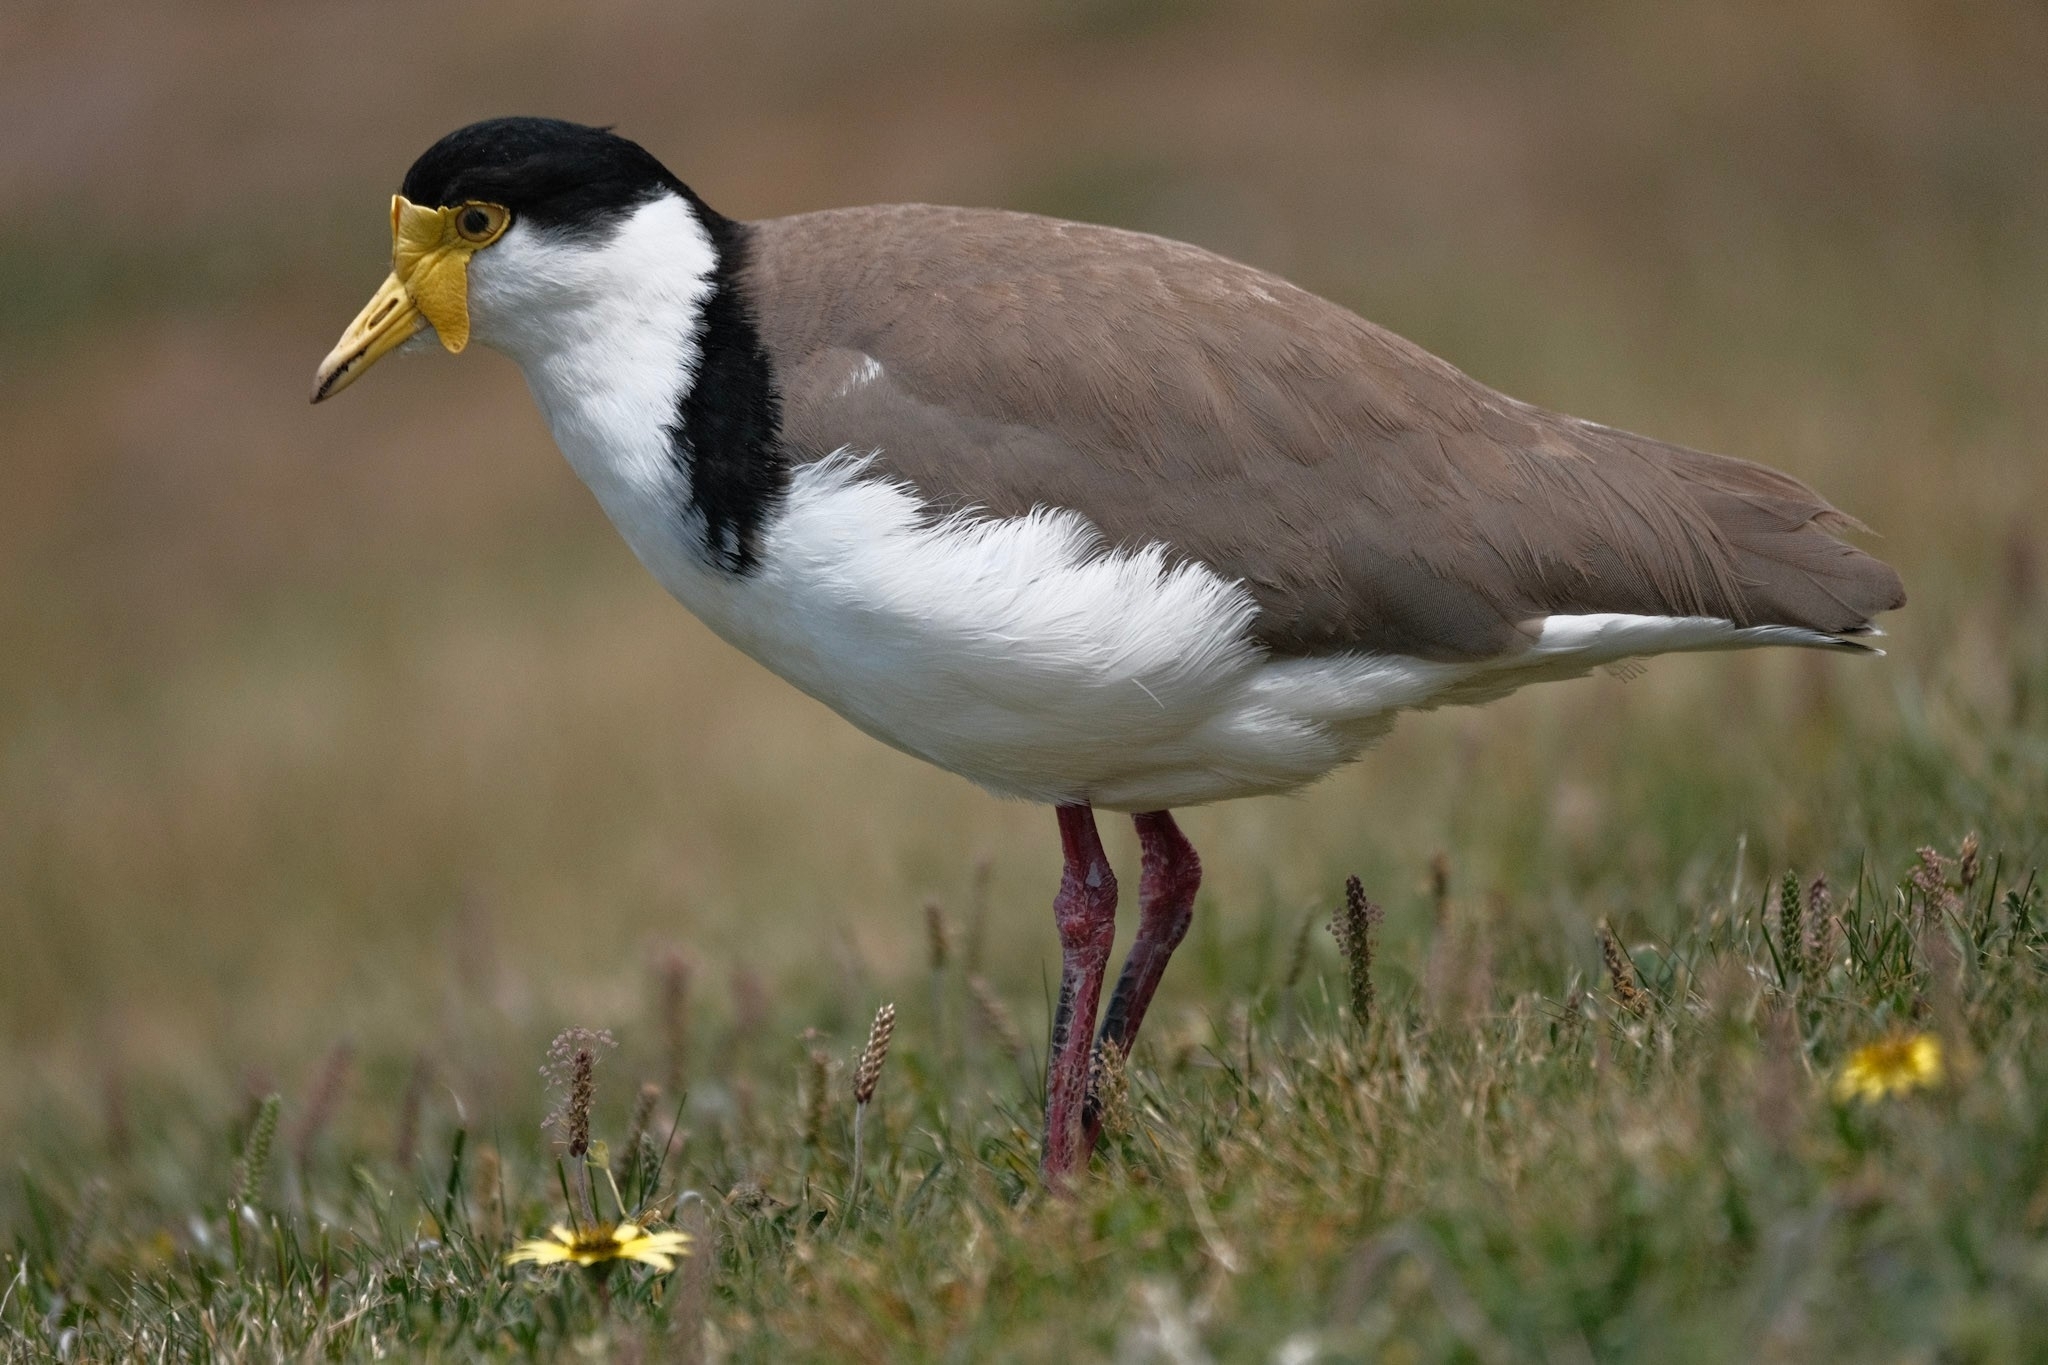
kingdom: Animalia
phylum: Chordata
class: Aves
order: Charadriiformes
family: Charadriidae
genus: Vanellus
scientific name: Vanellus miles
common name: Masked lapwing
